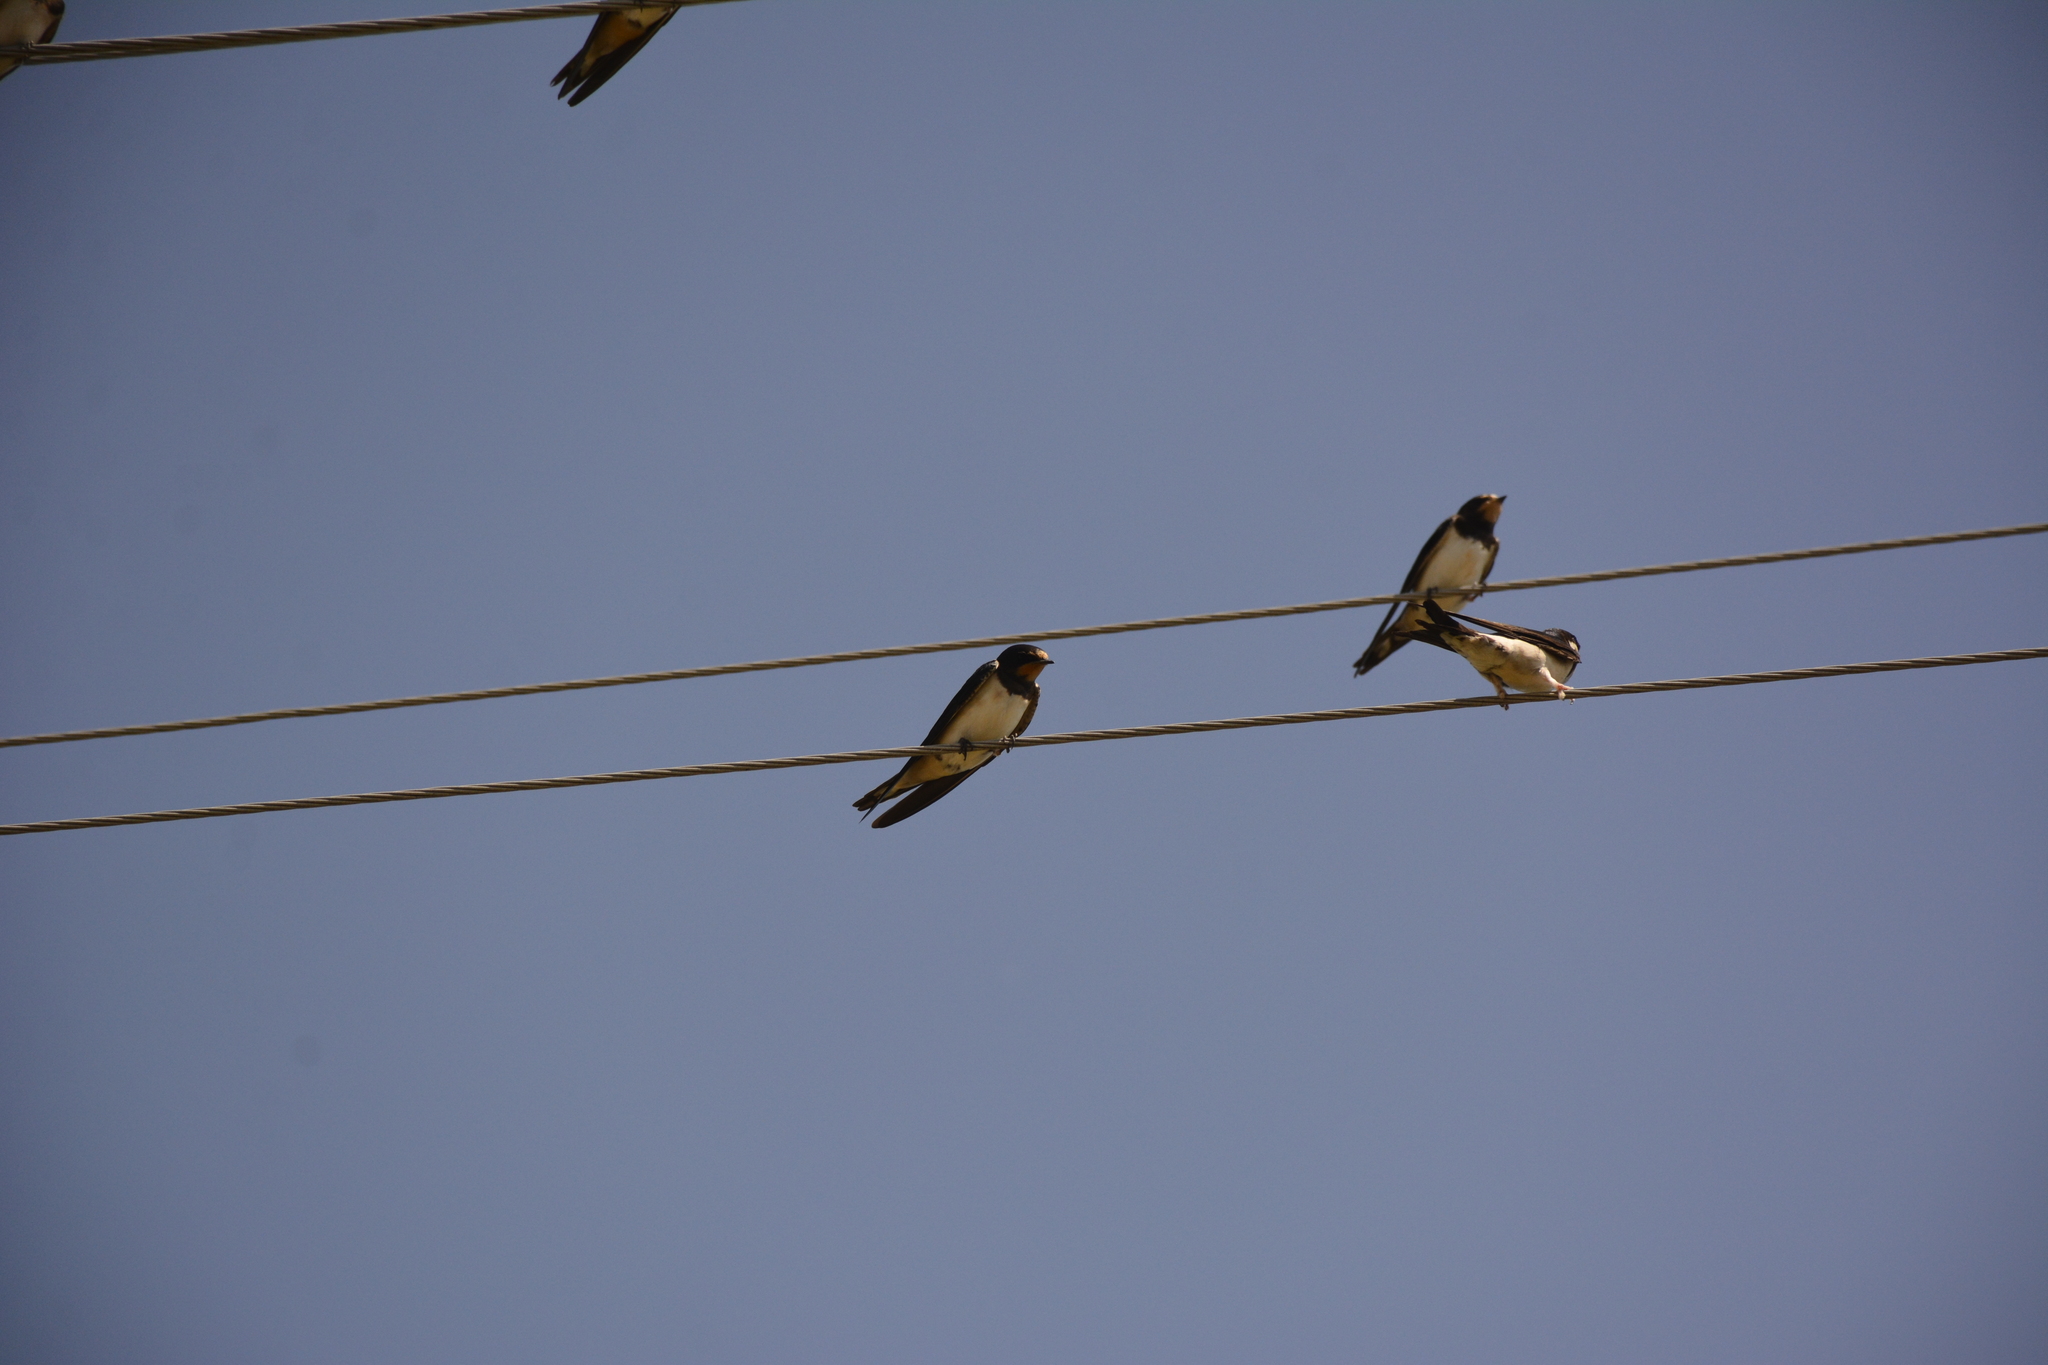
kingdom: Animalia
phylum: Chordata
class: Aves
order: Passeriformes
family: Hirundinidae
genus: Hirundo
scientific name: Hirundo rustica
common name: Barn swallow
